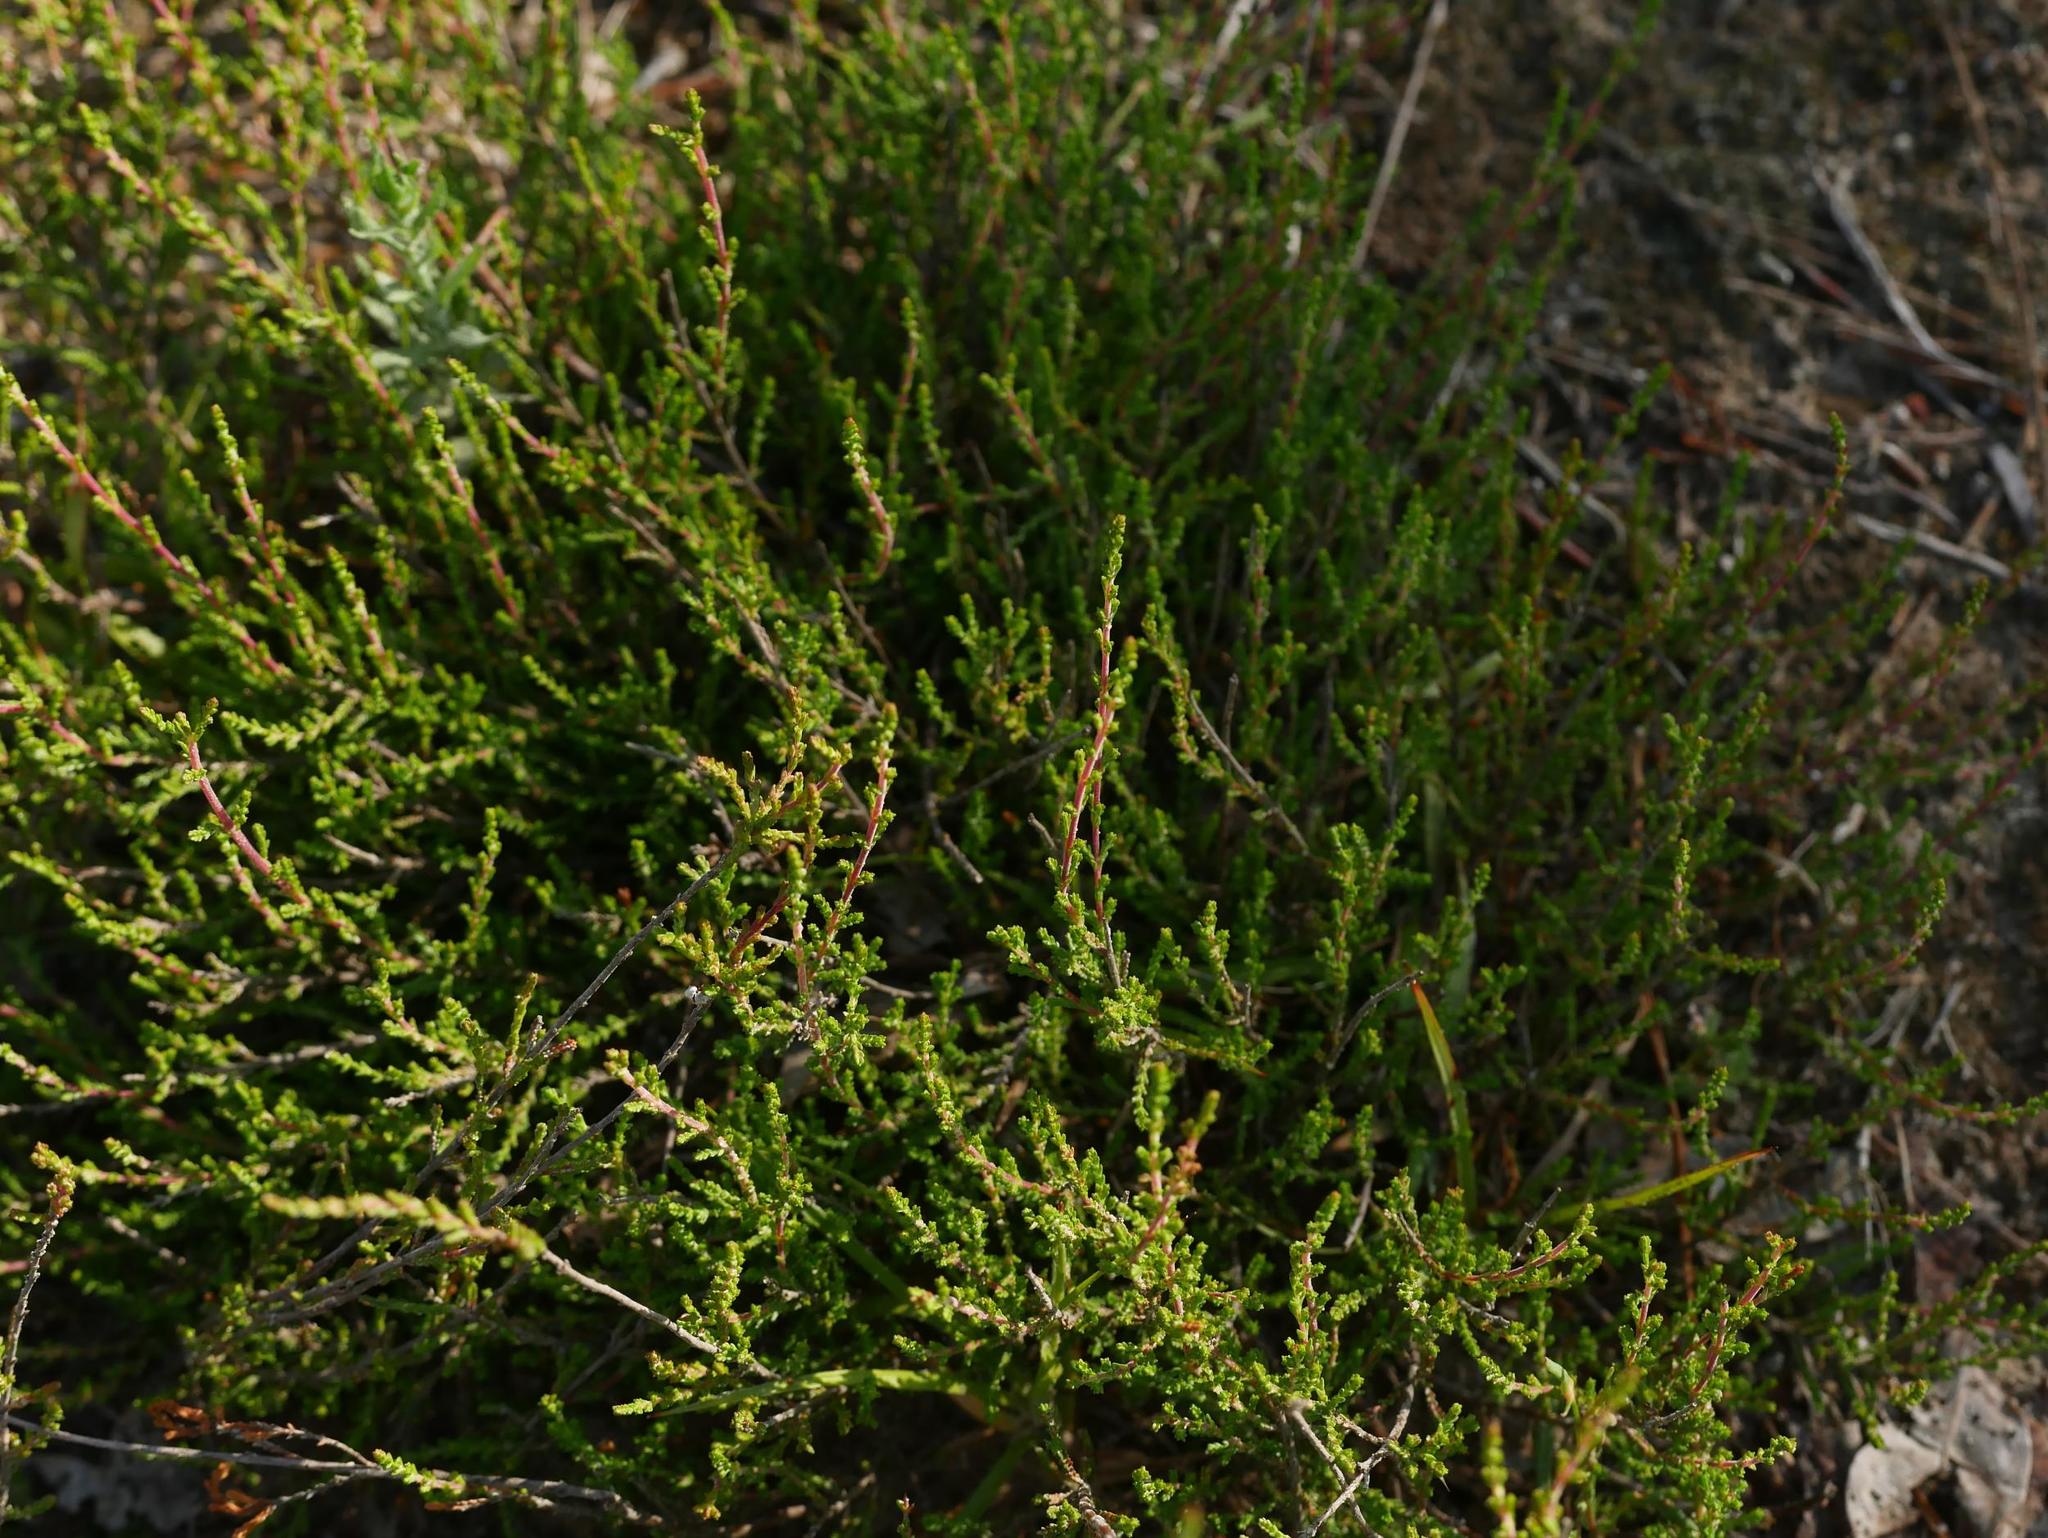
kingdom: Plantae
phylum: Tracheophyta
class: Magnoliopsida
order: Ericales
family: Ericaceae
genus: Calluna
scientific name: Calluna vulgaris
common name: Heather
